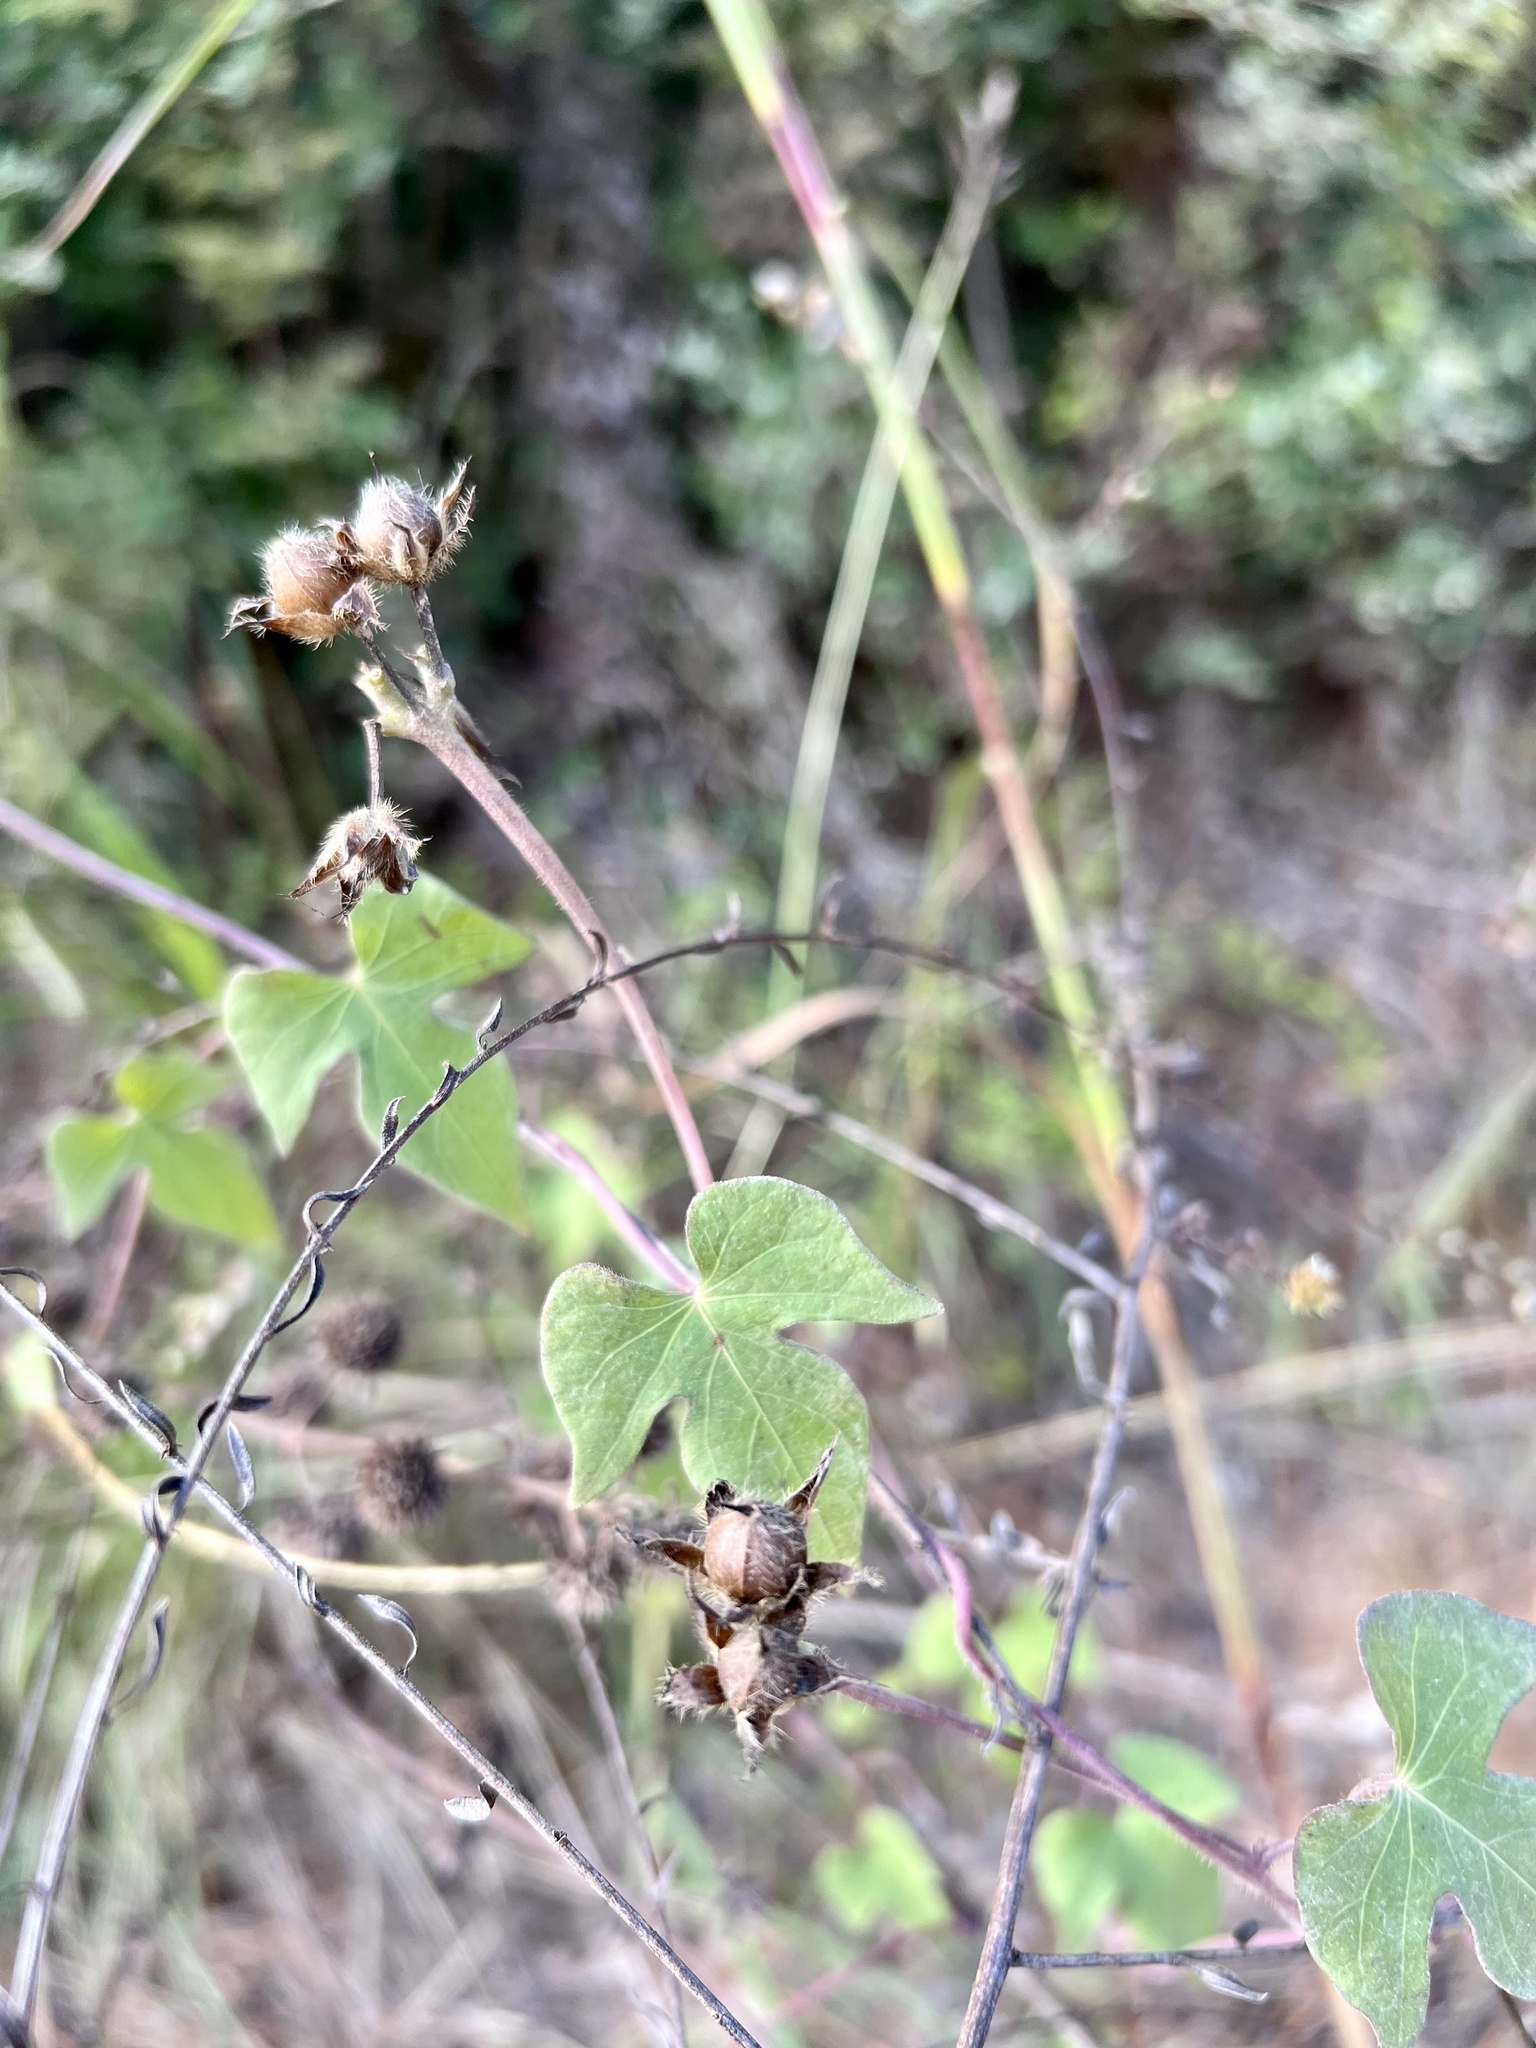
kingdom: Plantae
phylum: Tracheophyta
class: Magnoliopsida
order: Solanales
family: Convolvulaceae
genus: Ipomoea
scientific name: Ipomoea cordatotriloba
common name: Cotton morning glory
